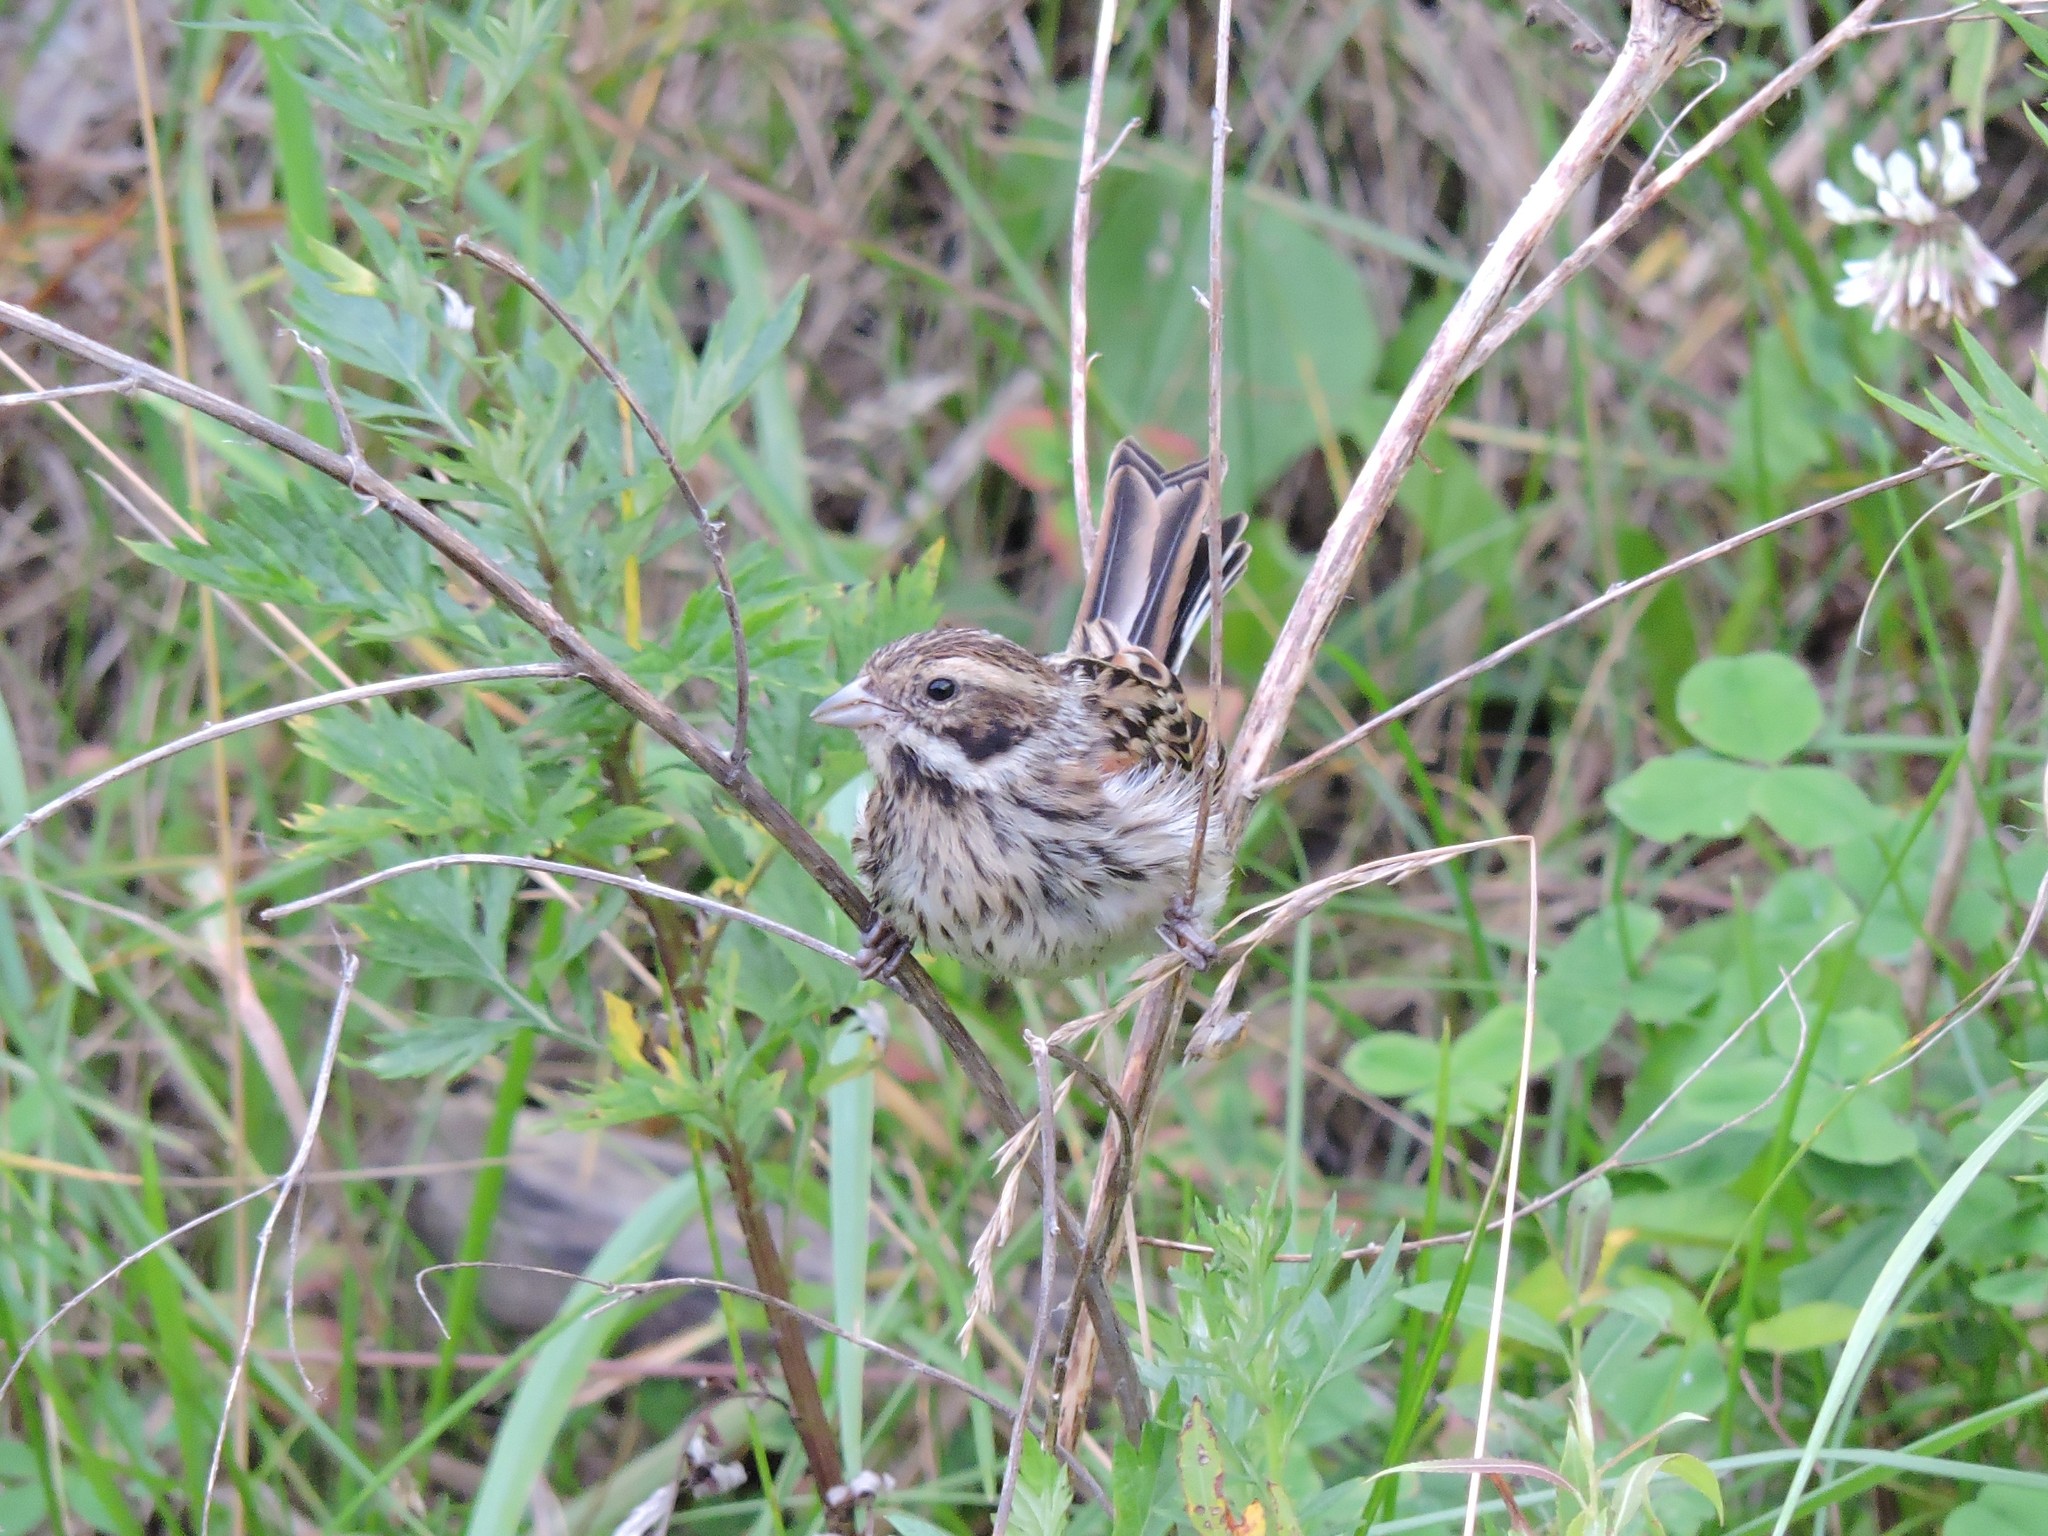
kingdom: Animalia
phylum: Chordata
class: Aves
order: Passeriformes
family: Emberizidae
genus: Emberiza
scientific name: Emberiza schoeniclus
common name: Reed bunting
